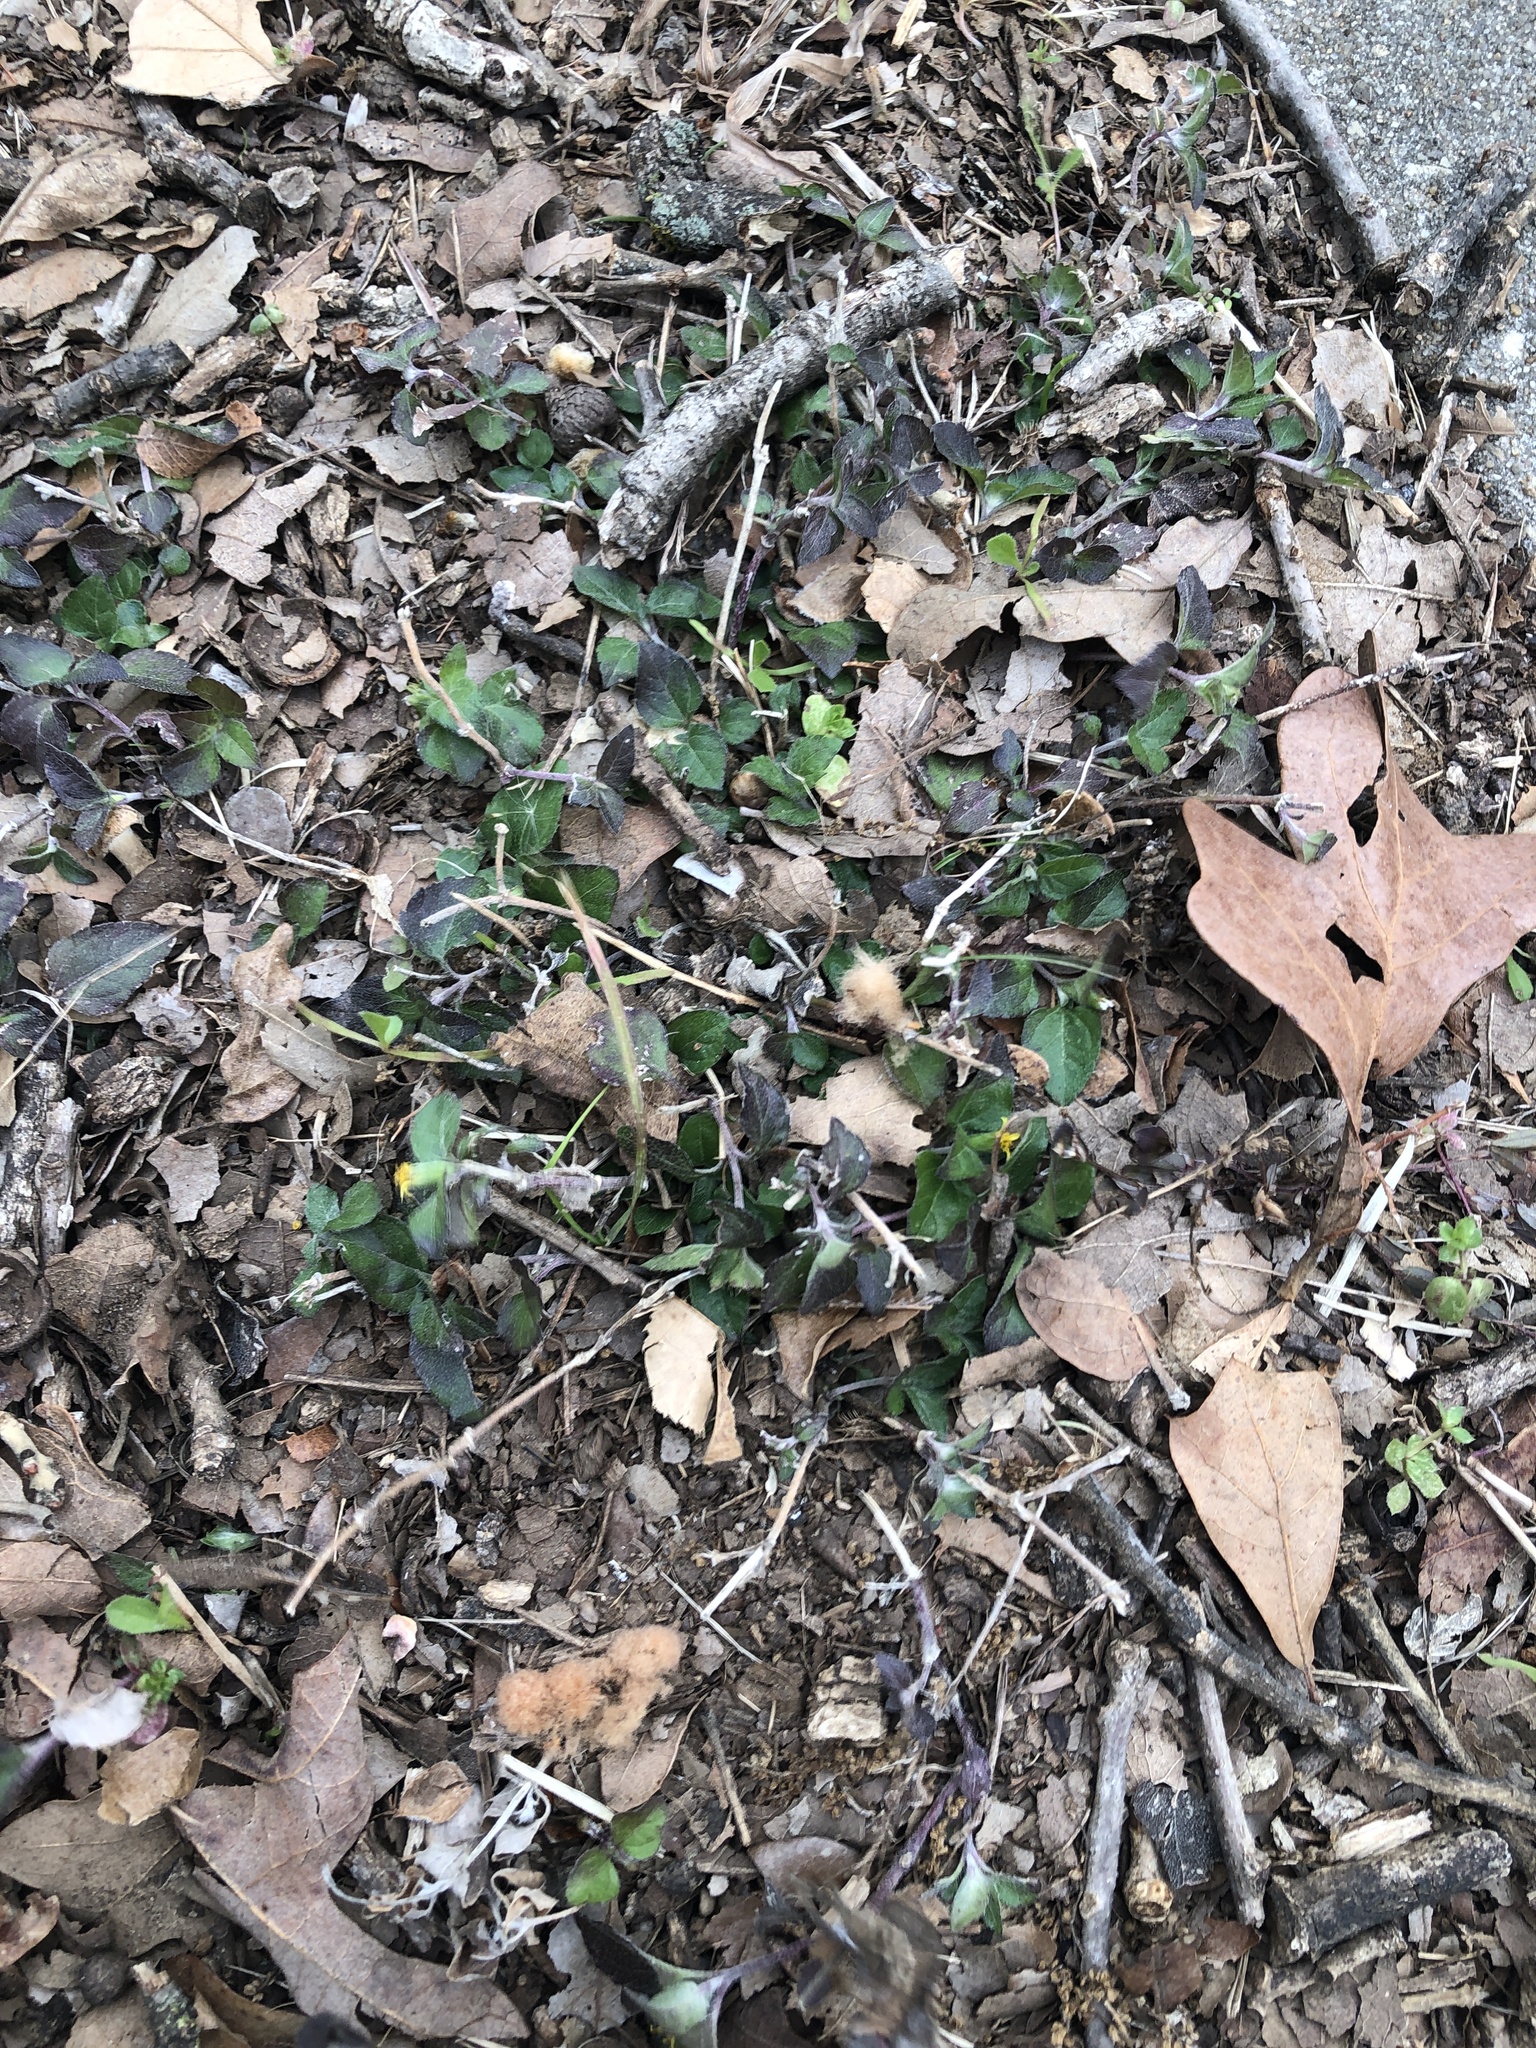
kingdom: Plantae
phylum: Tracheophyta
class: Magnoliopsida
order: Asterales
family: Asteraceae
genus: Calyptocarpus
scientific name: Calyptocarpus vialis
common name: Straggler daisy
